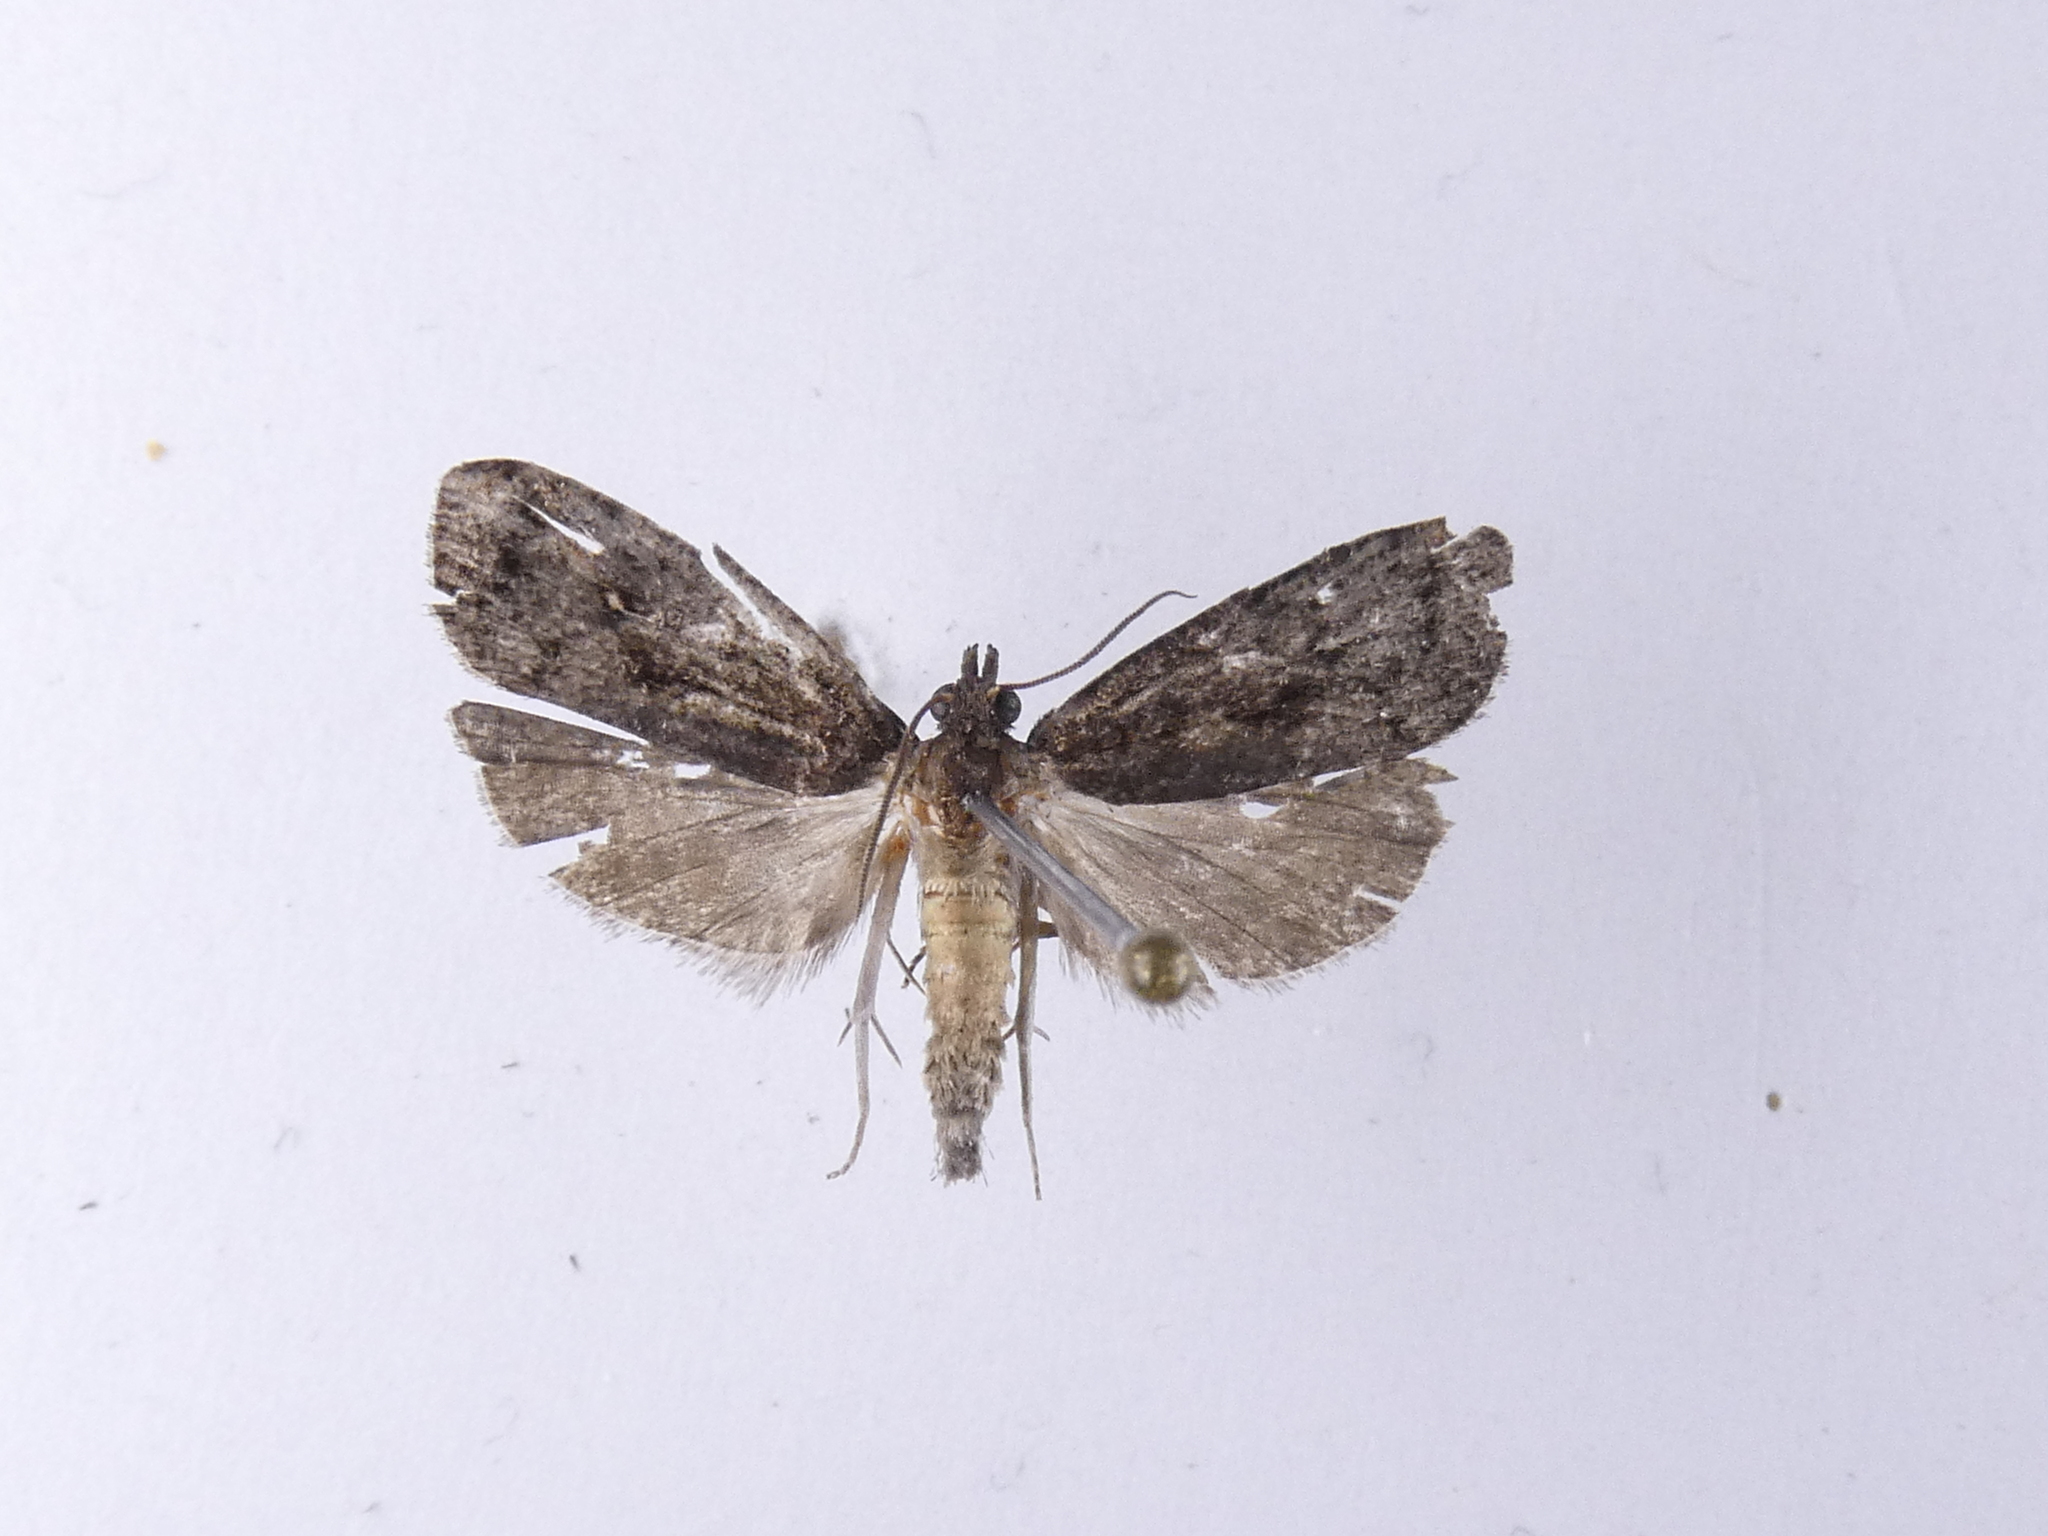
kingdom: Animalia
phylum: Arthropoda
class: Insecta
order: Lepidoptera
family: Tortricidae
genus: Cryptaspasma
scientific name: Cryptaspasma querula
